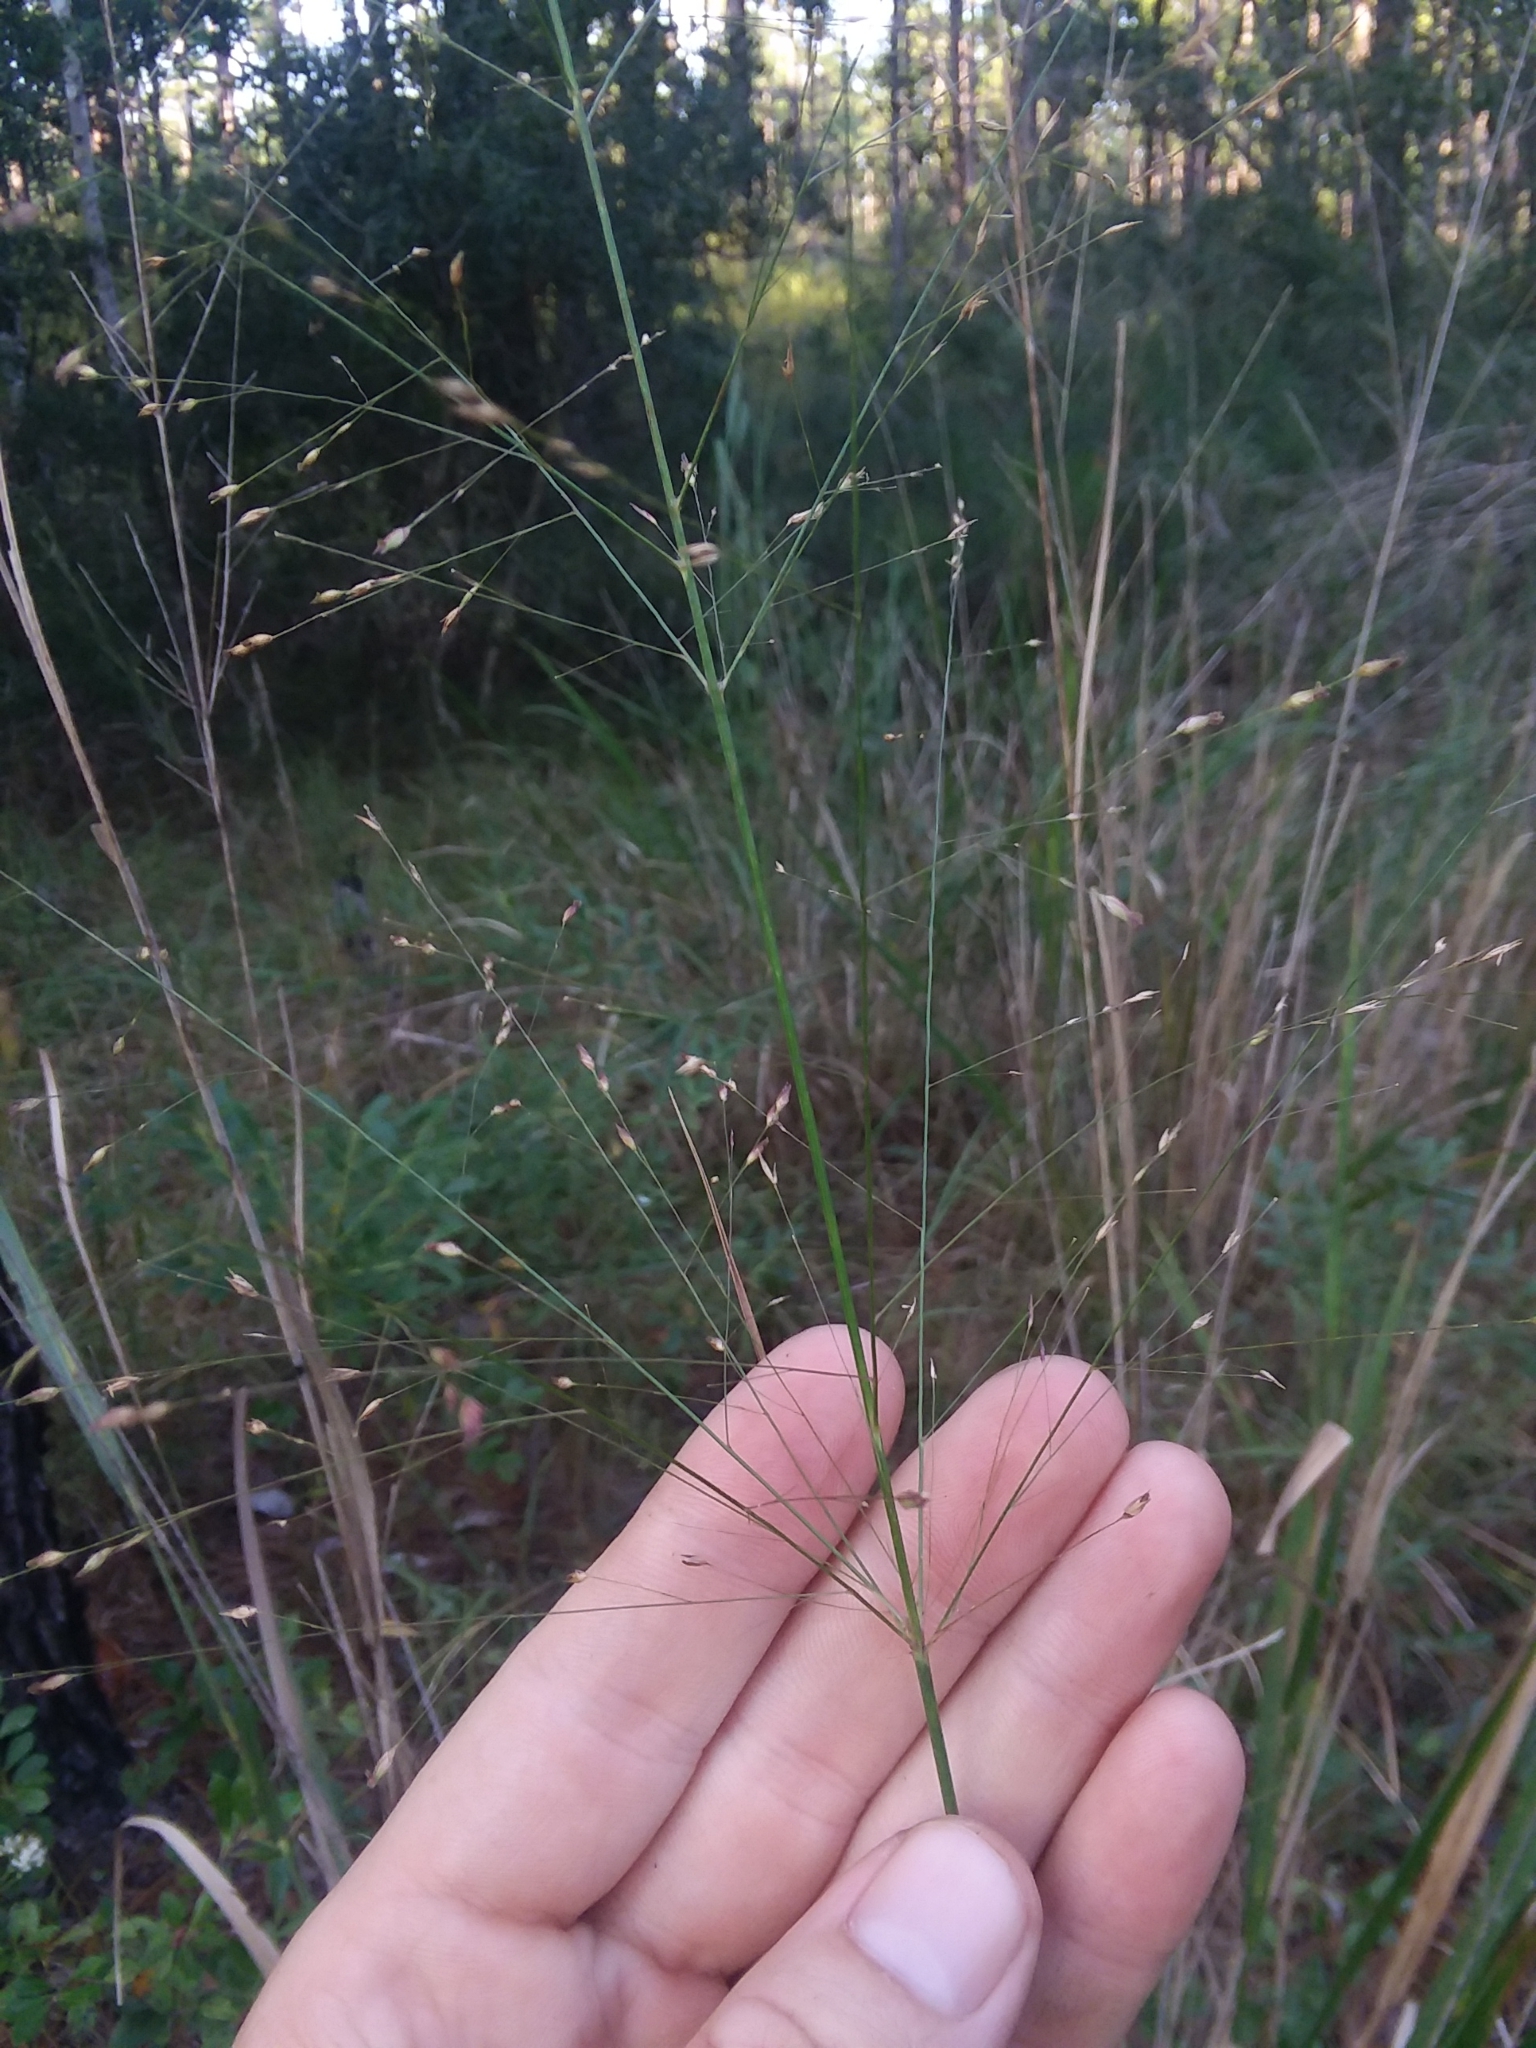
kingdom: Plantae
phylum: Tracheophyta
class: Liliopsida
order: Poales
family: Poaceae
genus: Panicum
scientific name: Panicum virgatum
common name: Switchgrass
